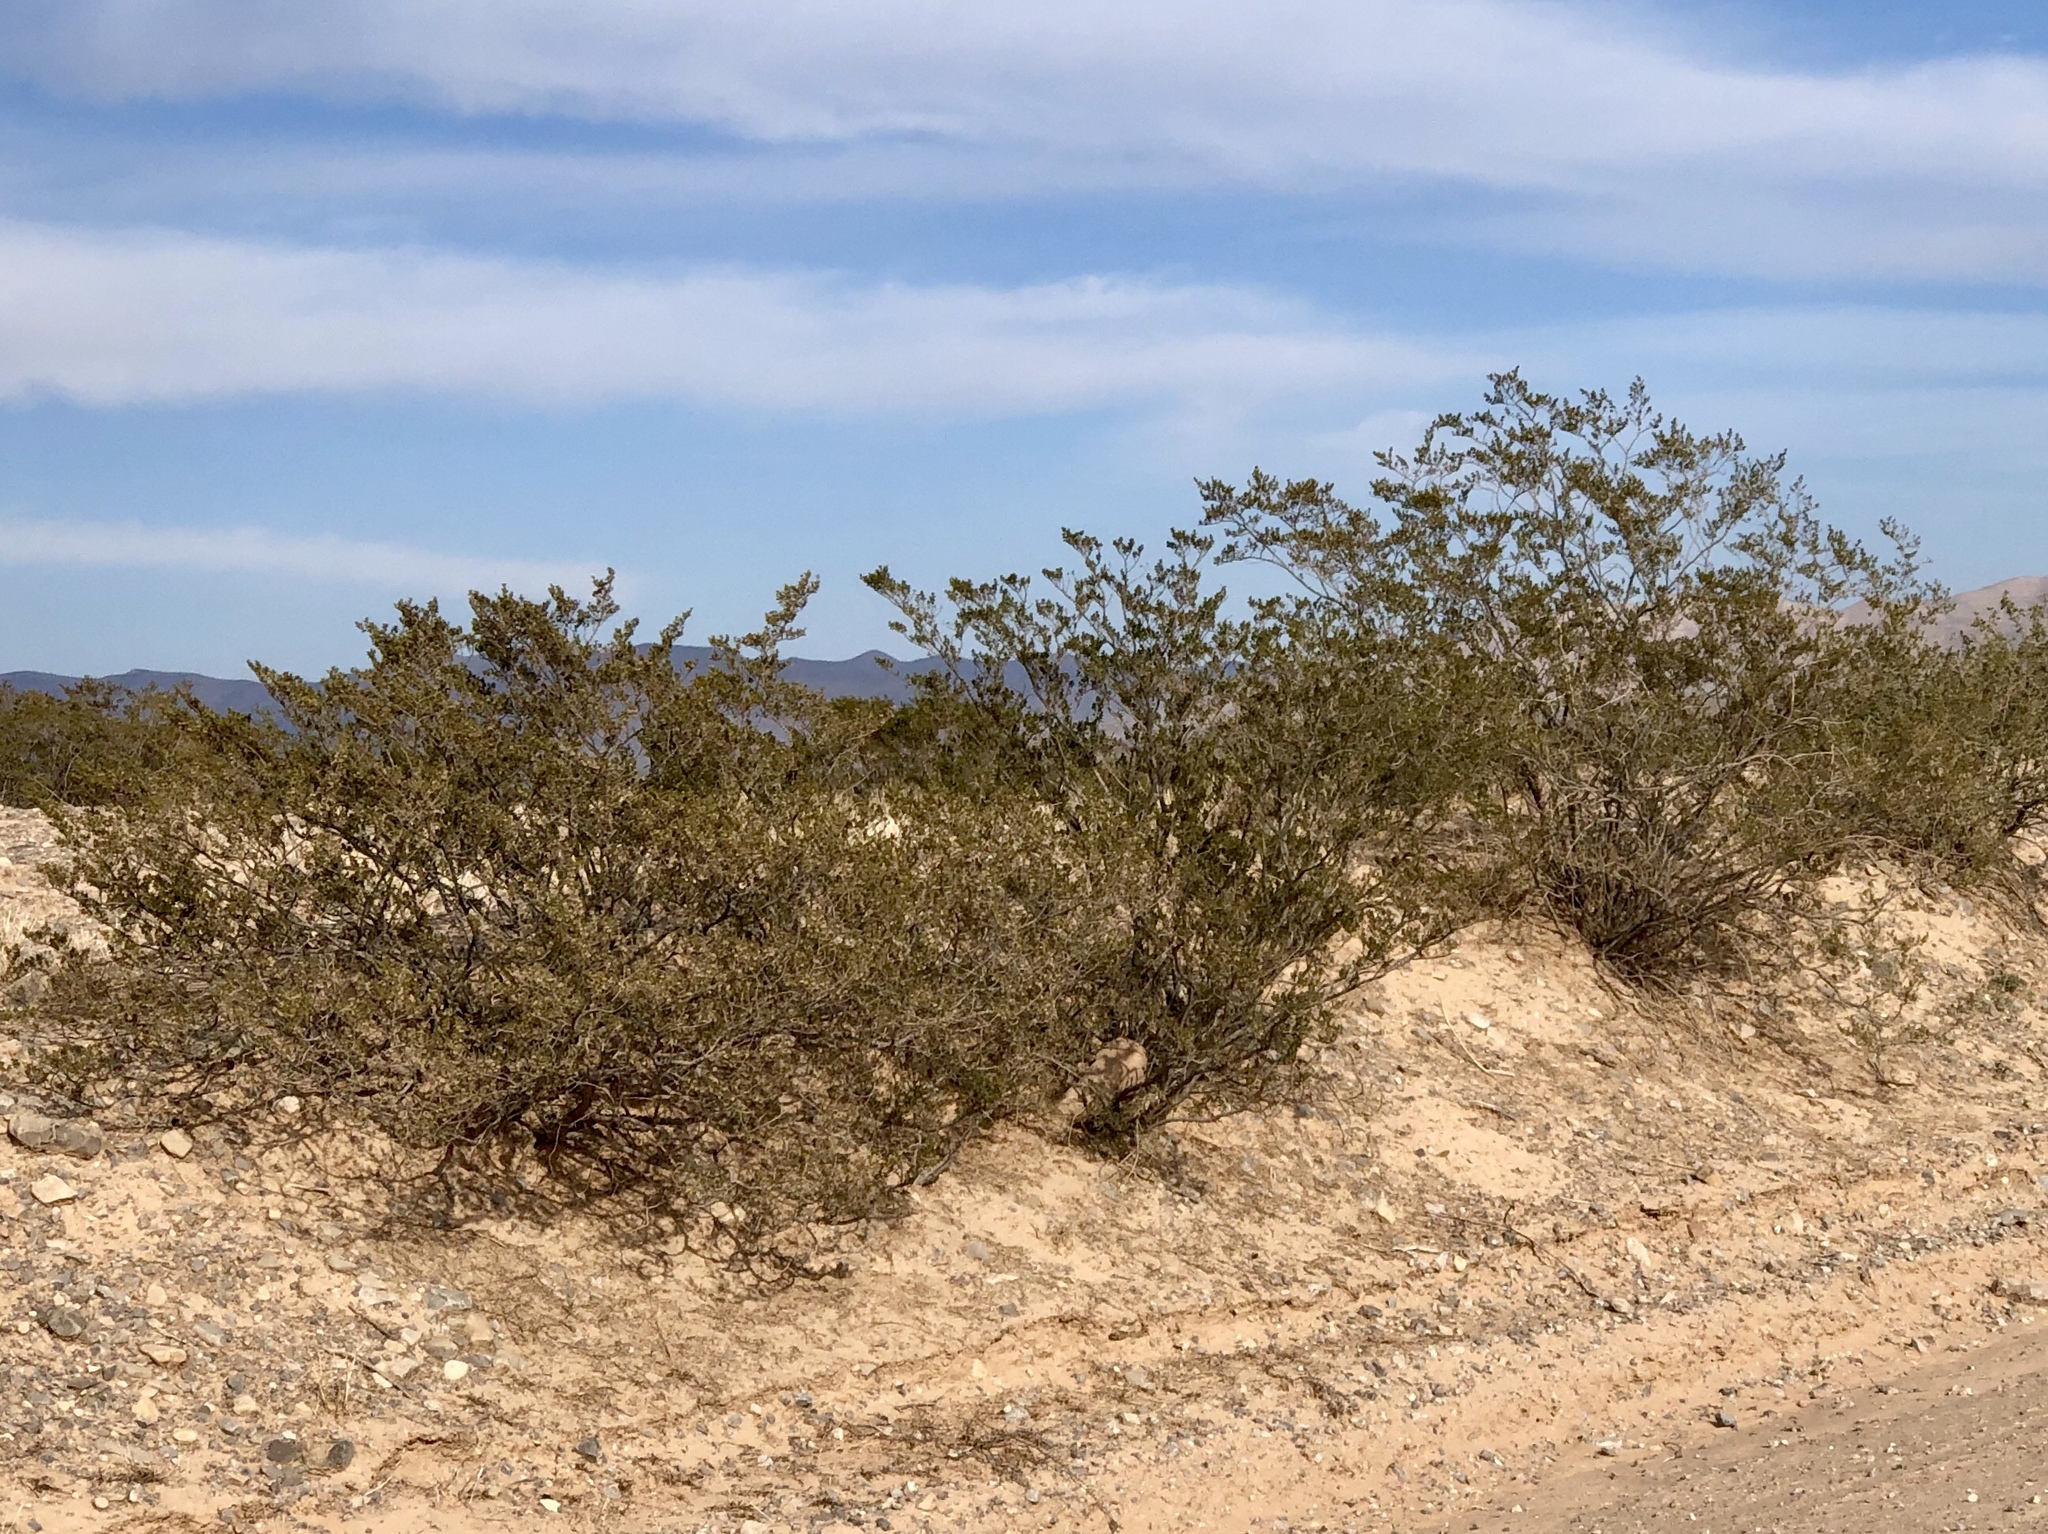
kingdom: Plantae
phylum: Tracheophyta
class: Magnoliopsida
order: Zygophyllales
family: Zygophyllaceae
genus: Larrea
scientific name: Larrea tridentata
